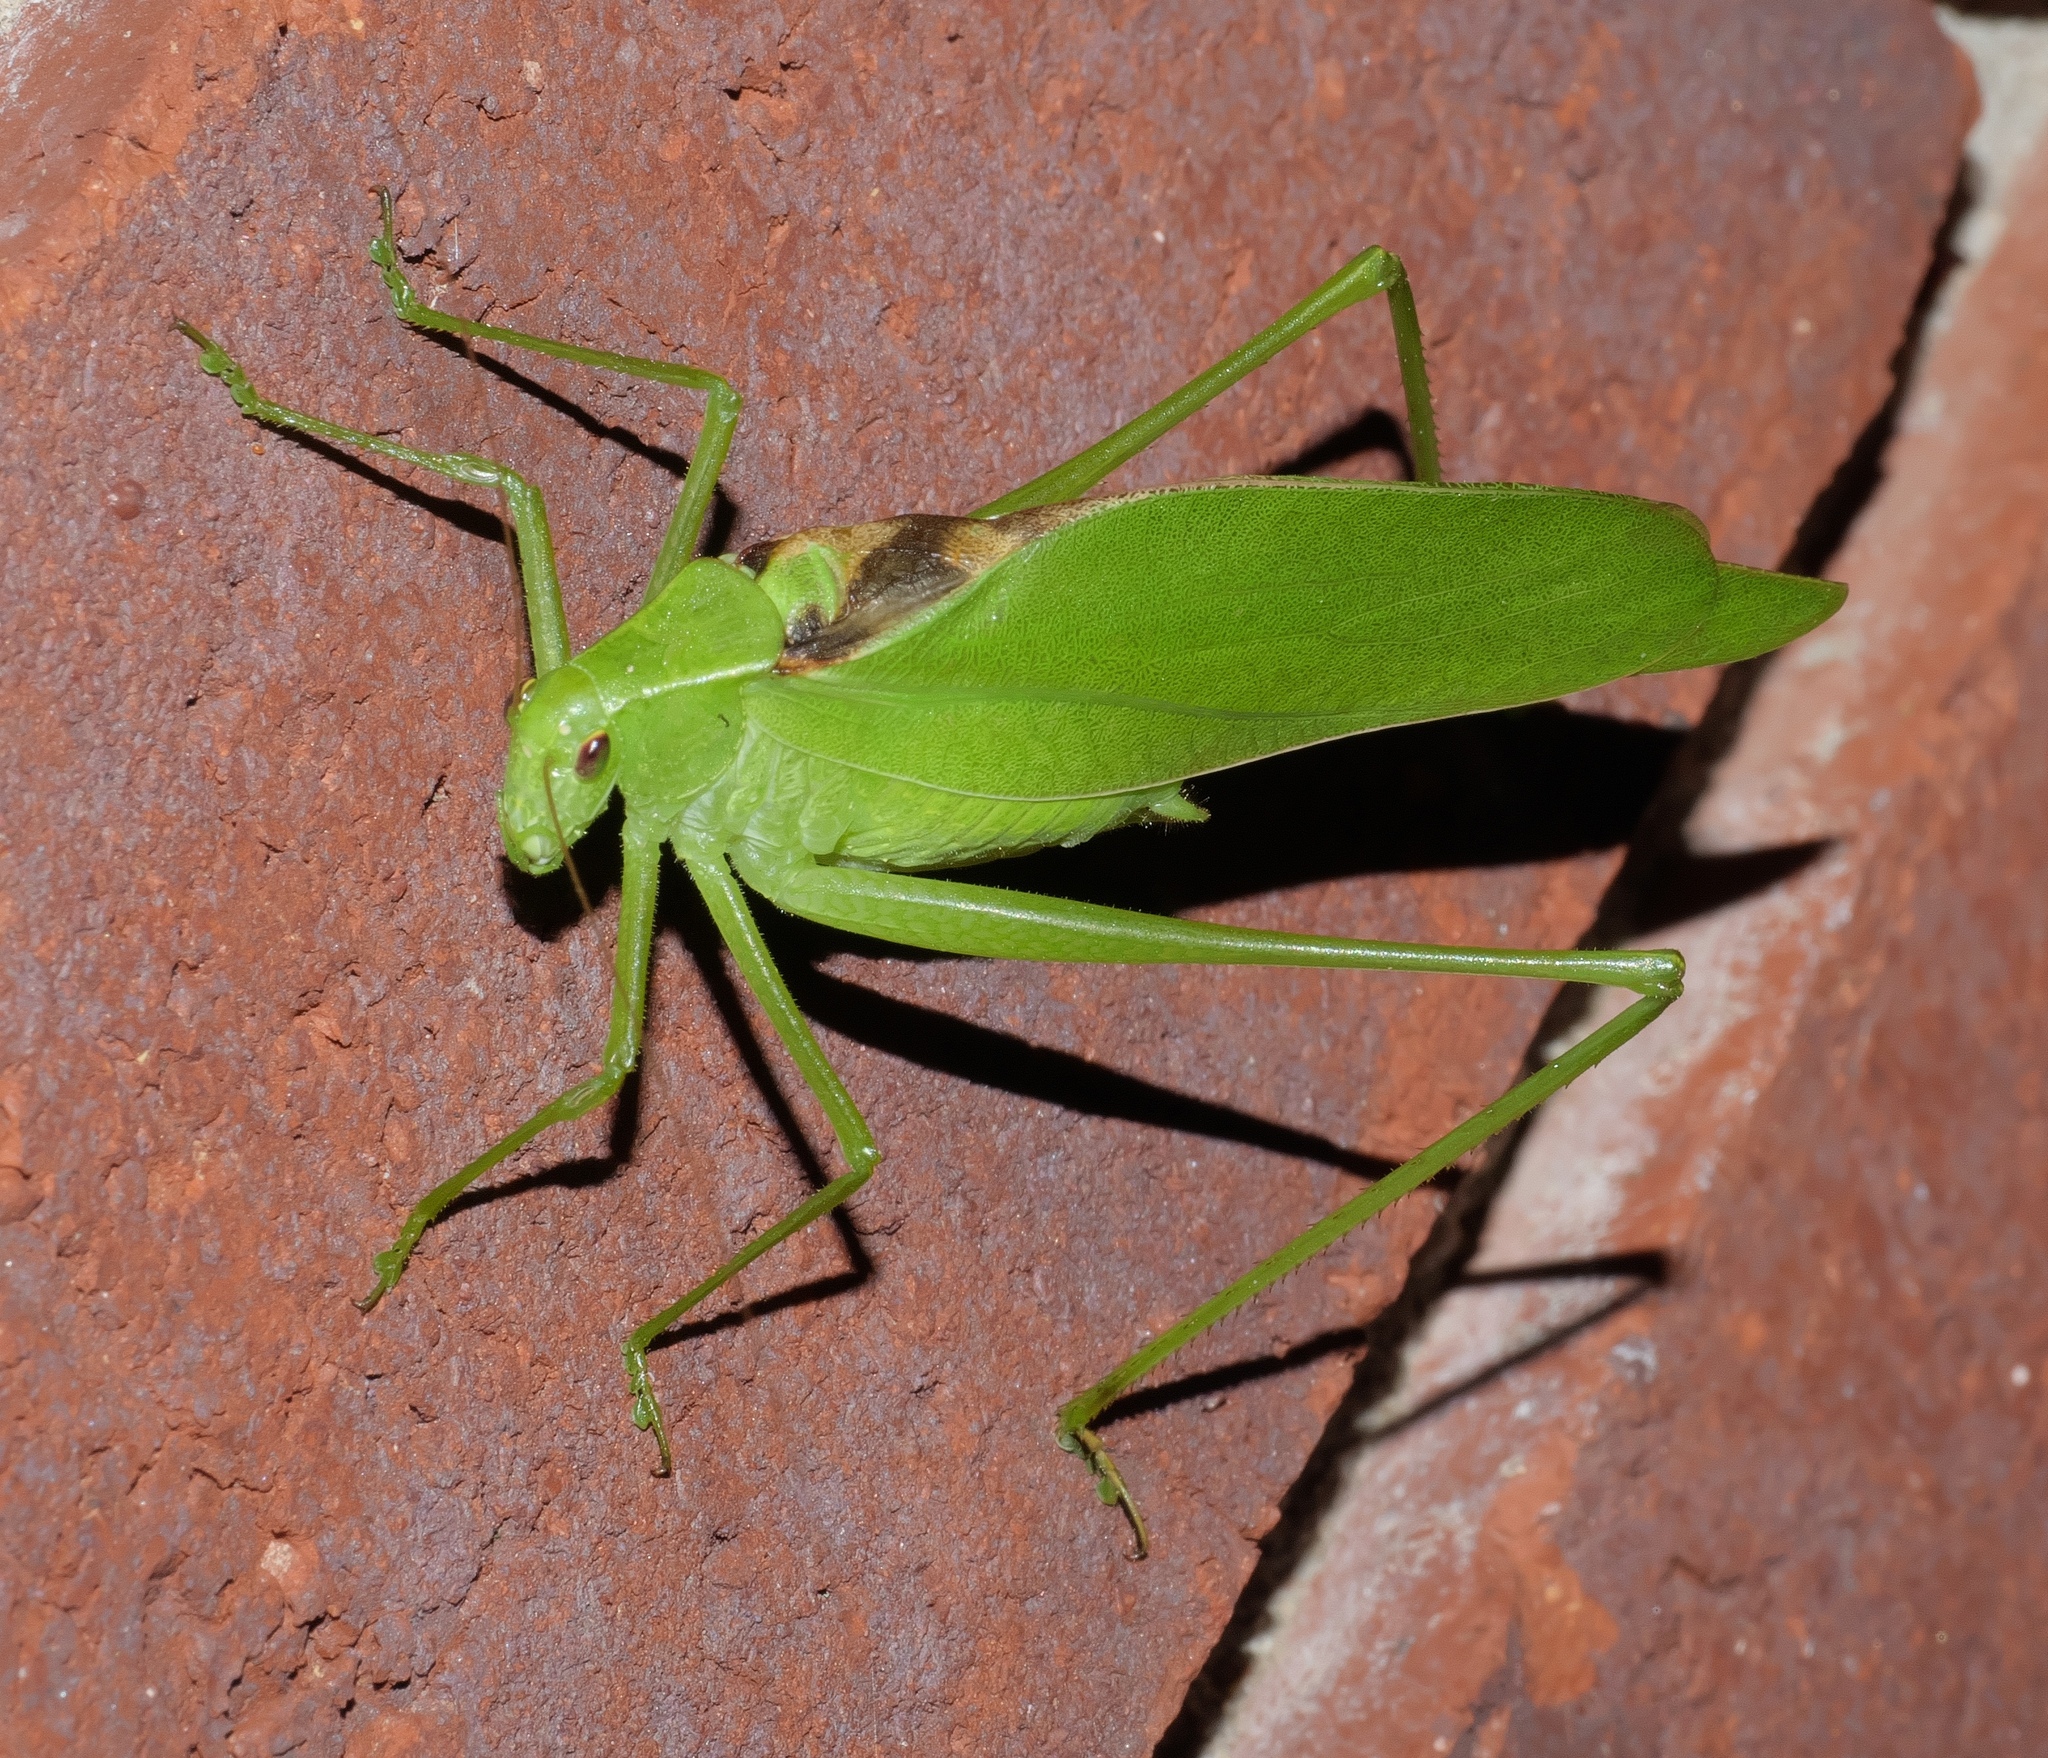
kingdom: Animalia
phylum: Arthropoda
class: Insecta
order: Orthoptera
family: Tettigoniidae
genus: Amblycorypha
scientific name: Amblycorypha oblongifolia
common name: Oblong-winged katydid
